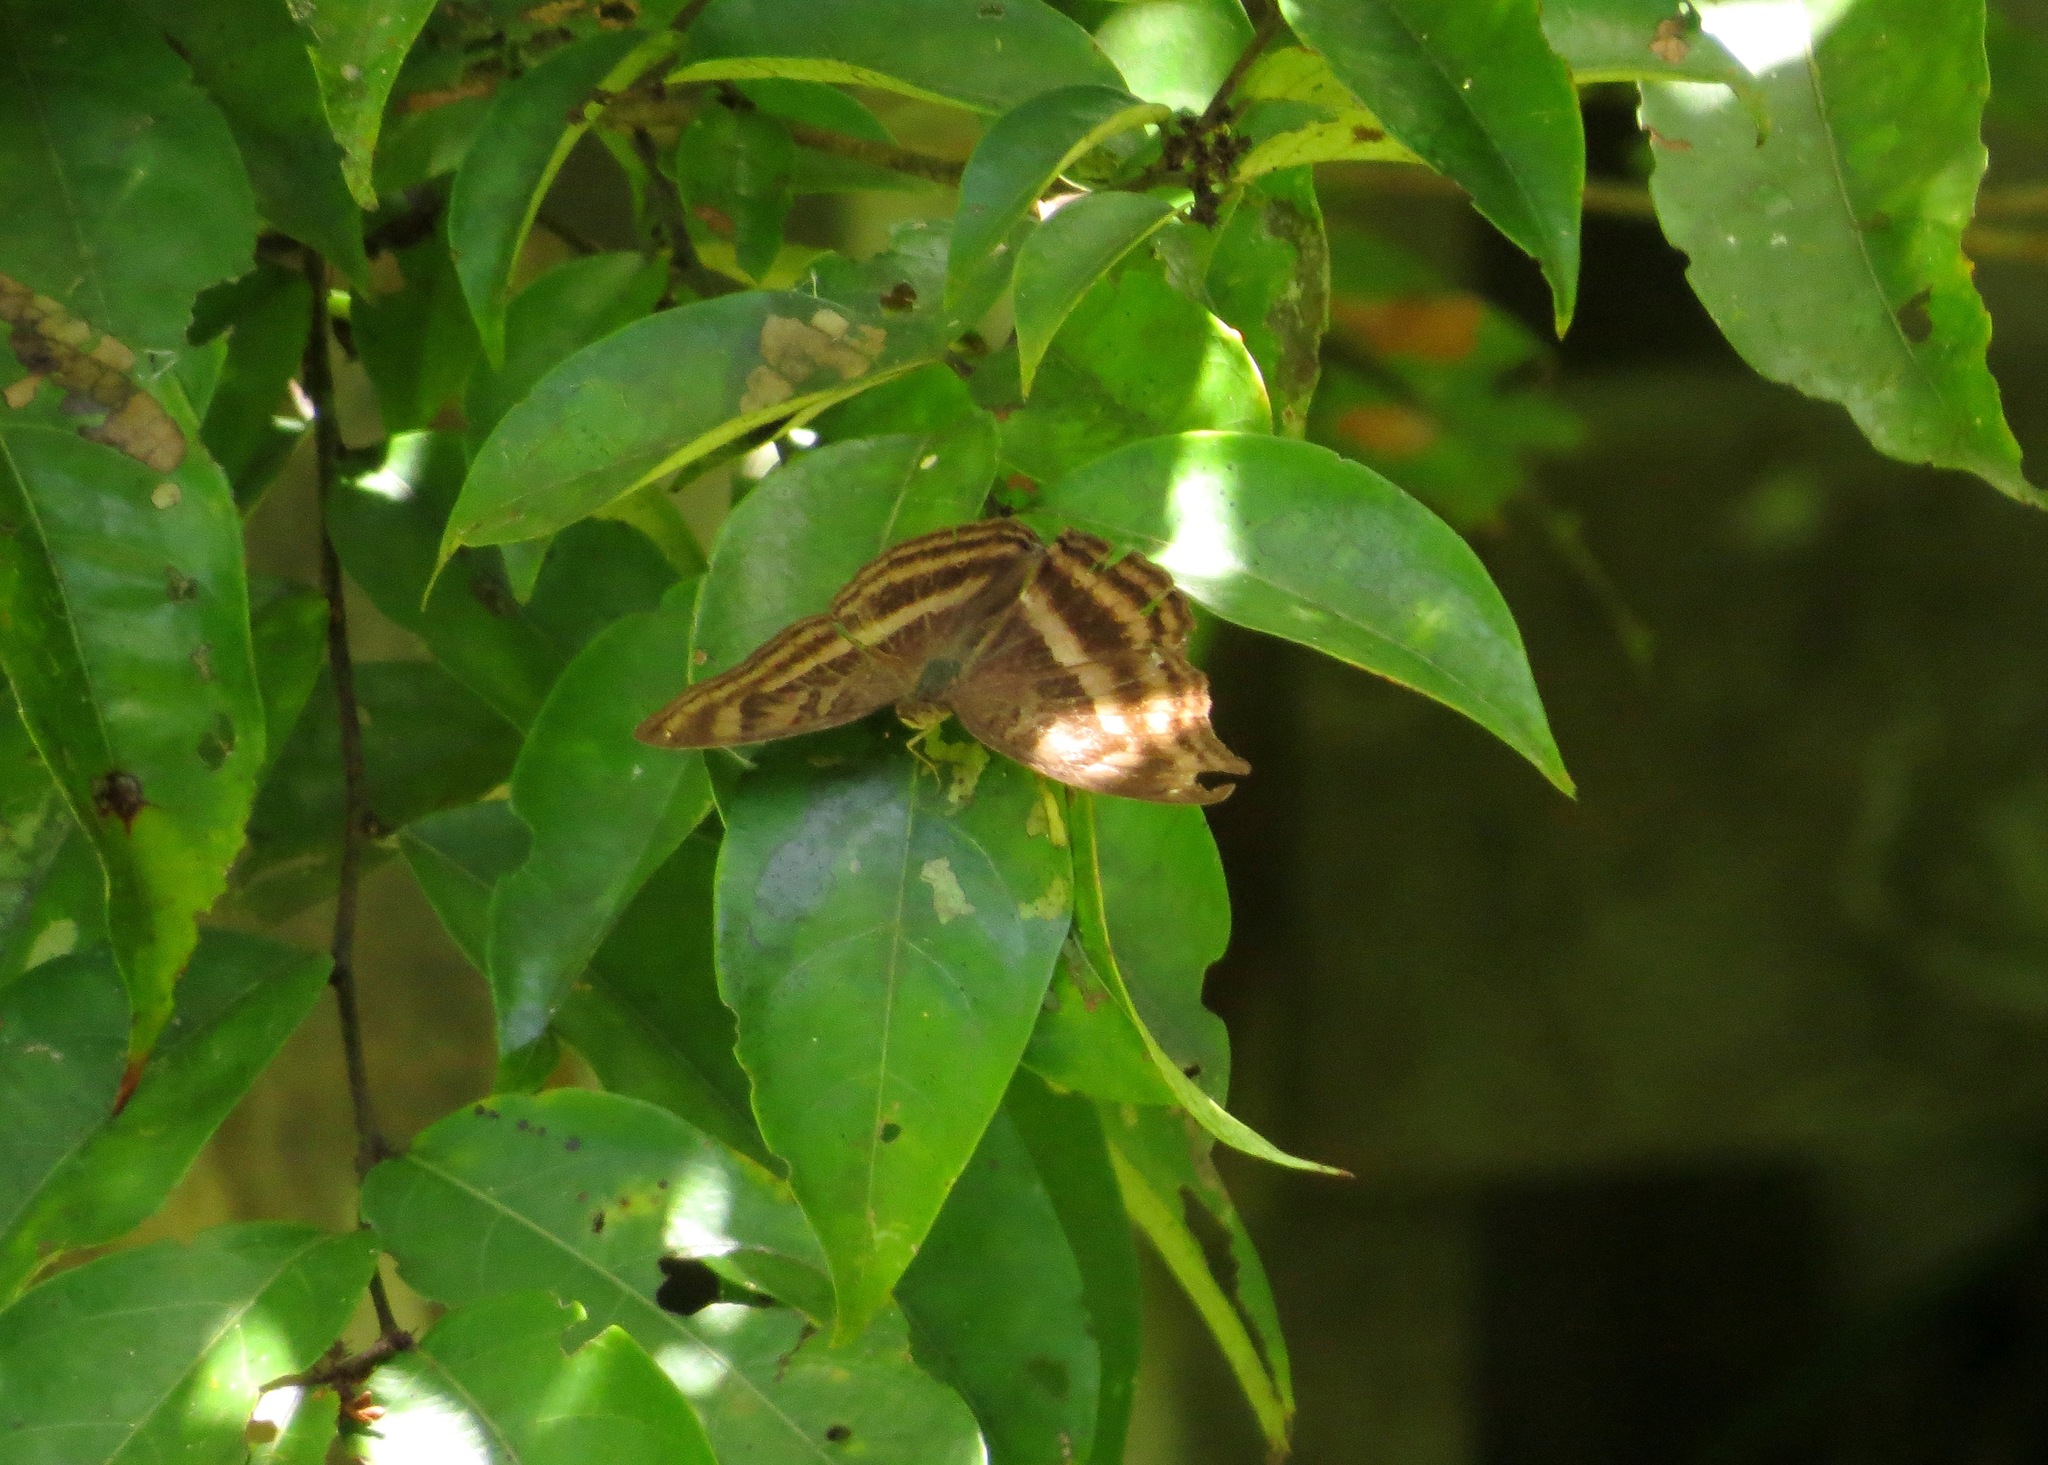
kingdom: Animalia
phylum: Arthropoda
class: Insecta
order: Lepidoptera
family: Nymphalidae
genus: Junonia
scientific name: Junonia iphita
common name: Chocolate pansy
